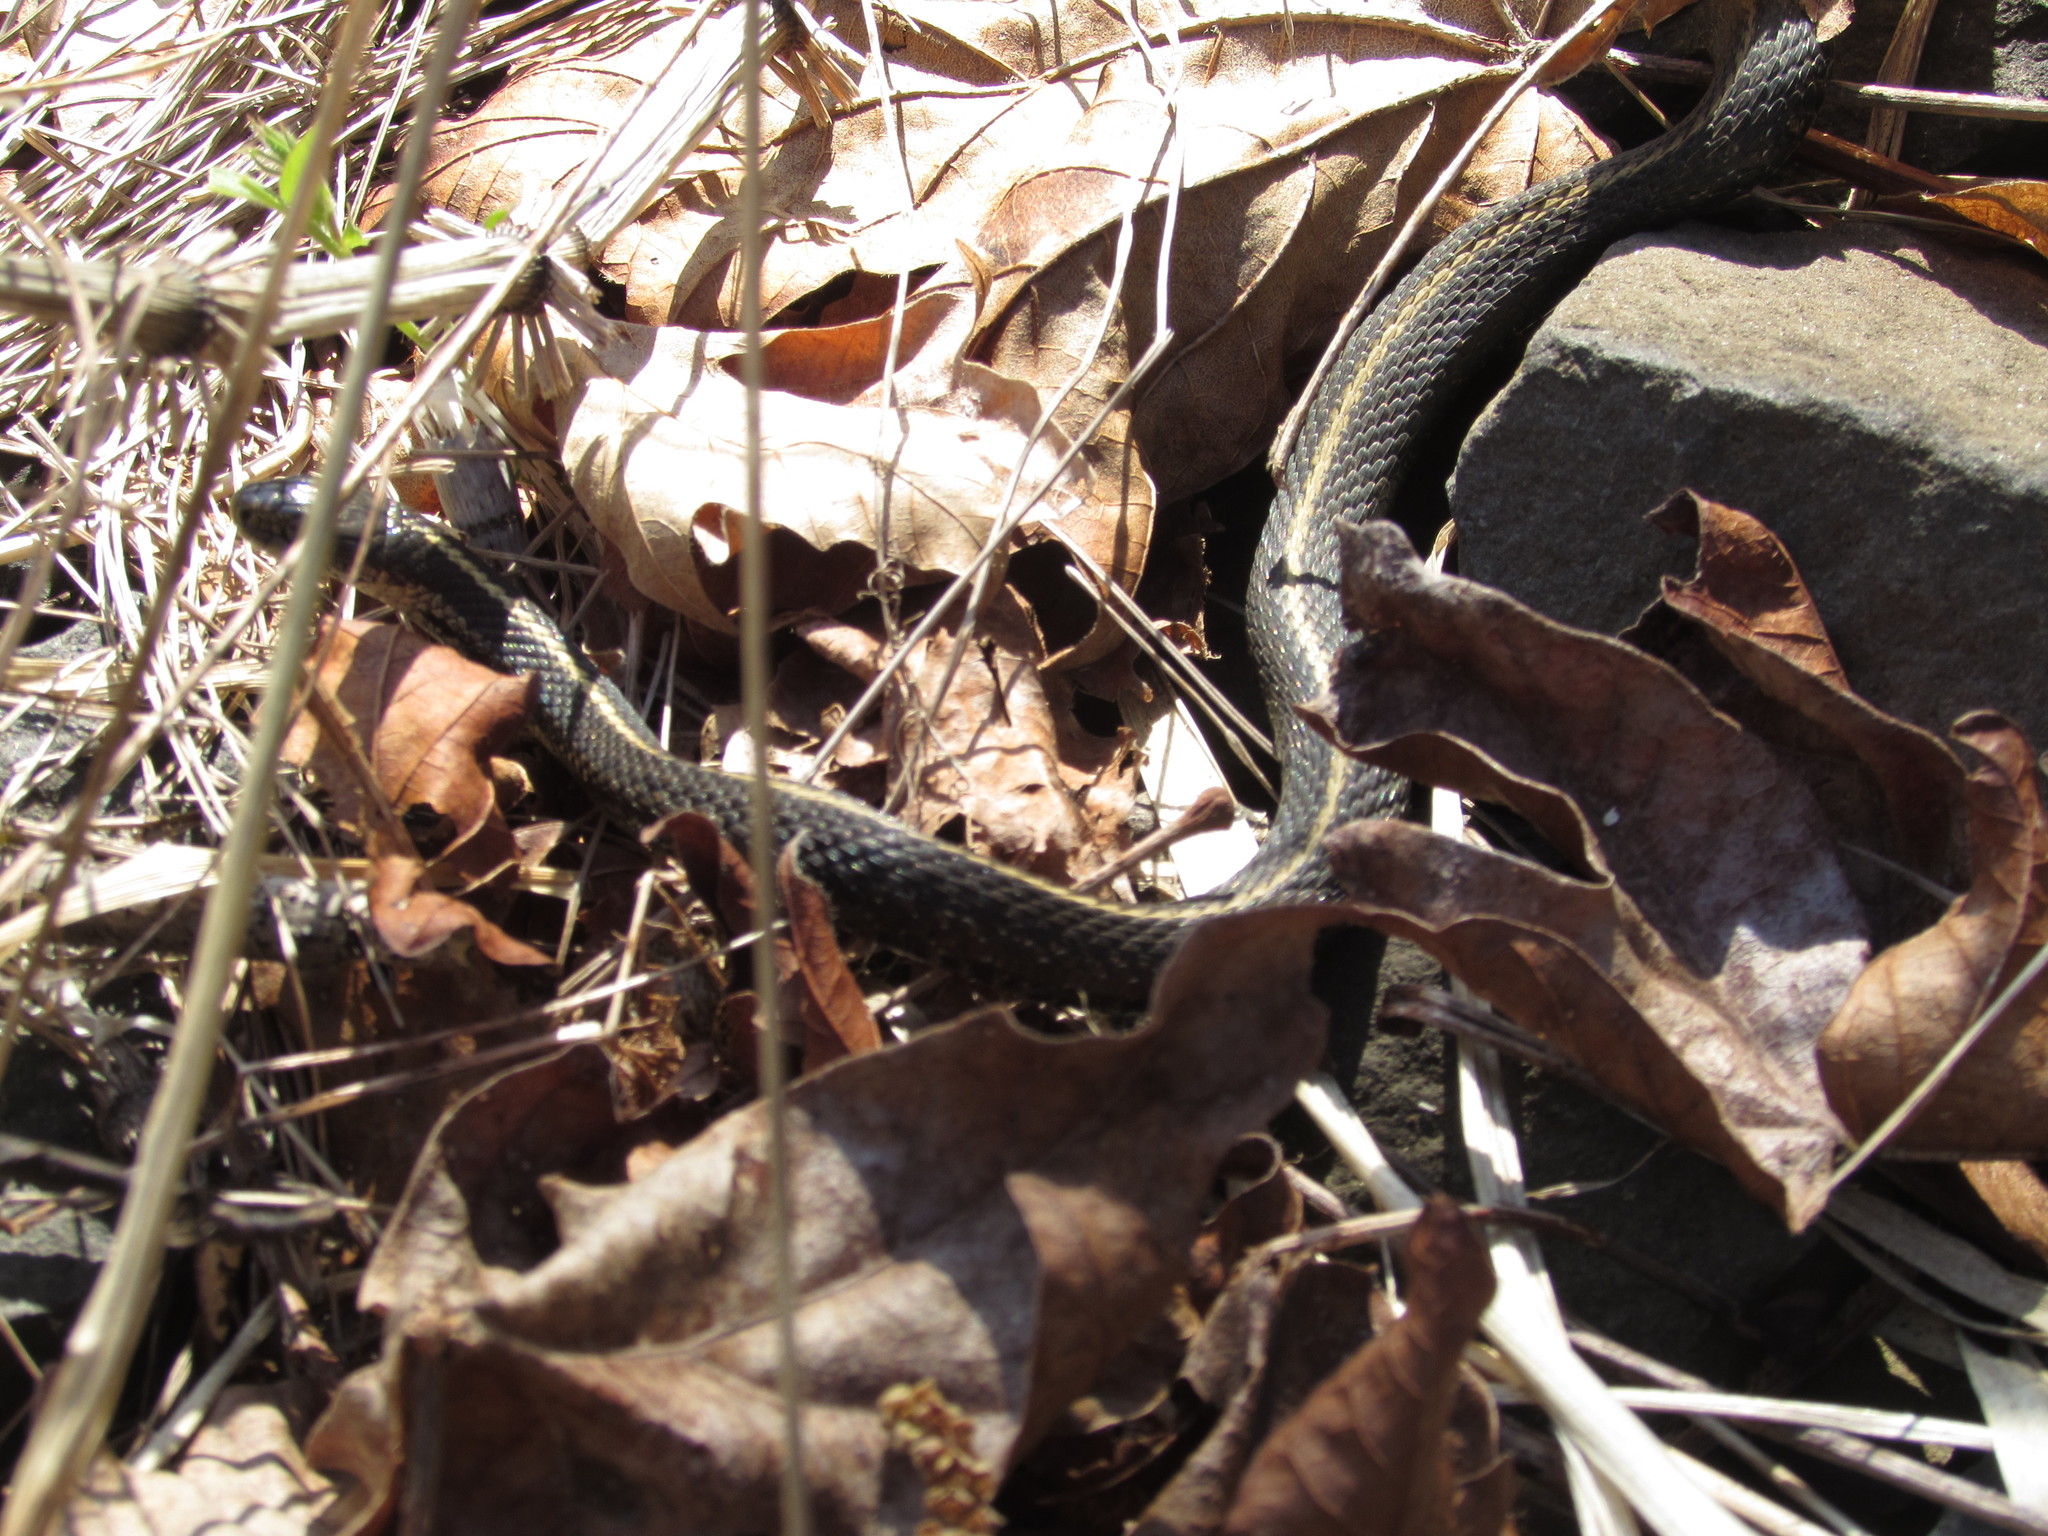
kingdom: Animalia
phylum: Chordata
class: Squamata
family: Colubridae
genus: Thamnophis
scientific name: Thamnophis ordinoides
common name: Northwestern garter snake
